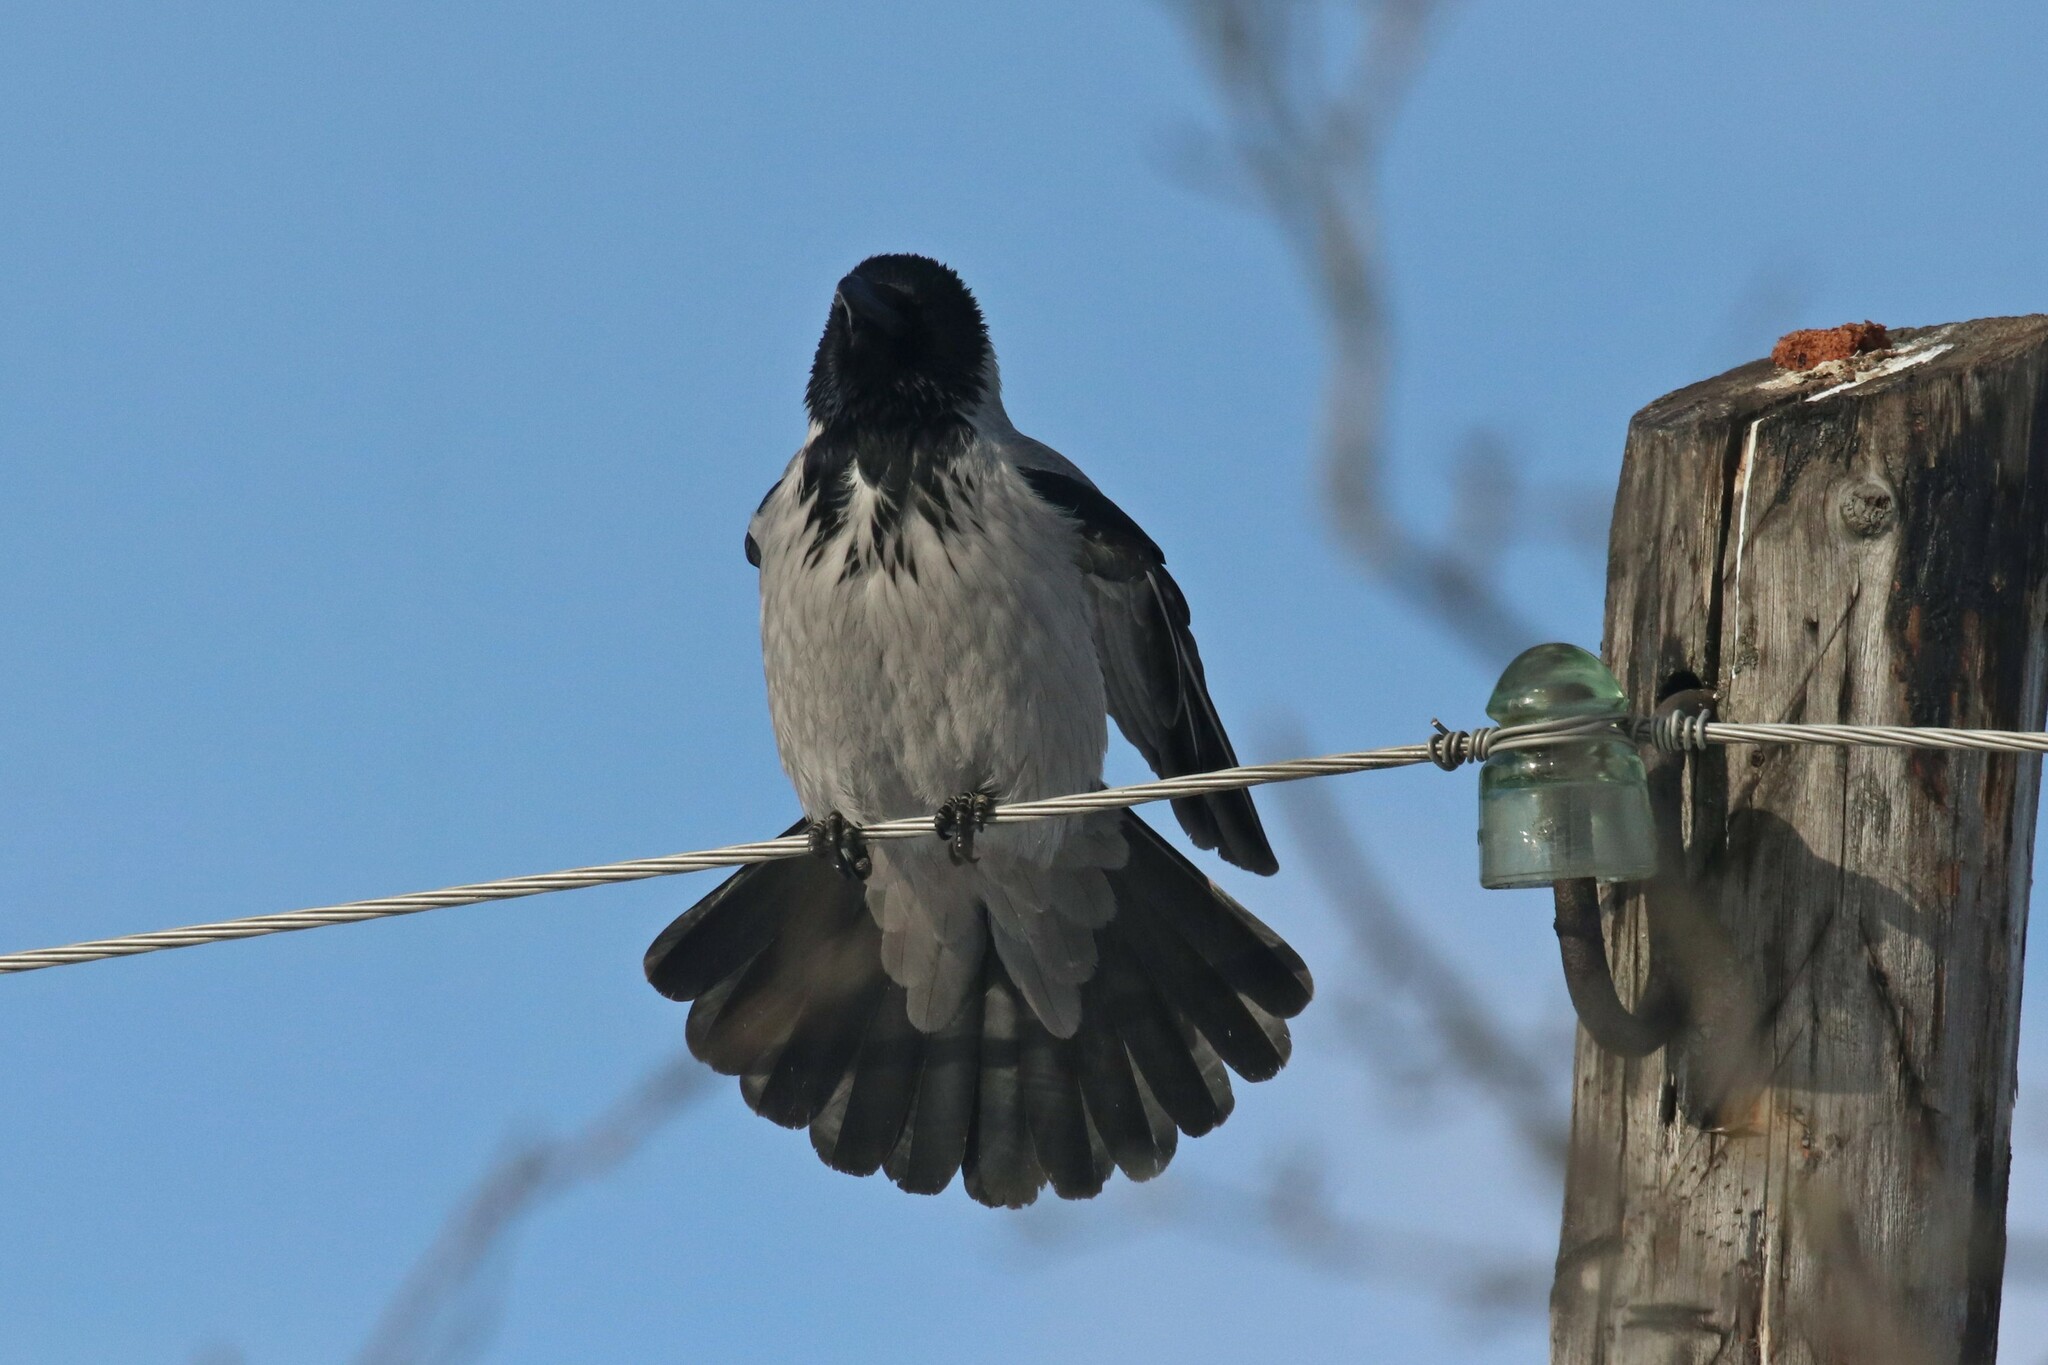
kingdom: Animalia
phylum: Chordata
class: Aves
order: Passeriformes
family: Corvidae
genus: Corvus
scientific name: Corvus cornix
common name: Hooded crow
